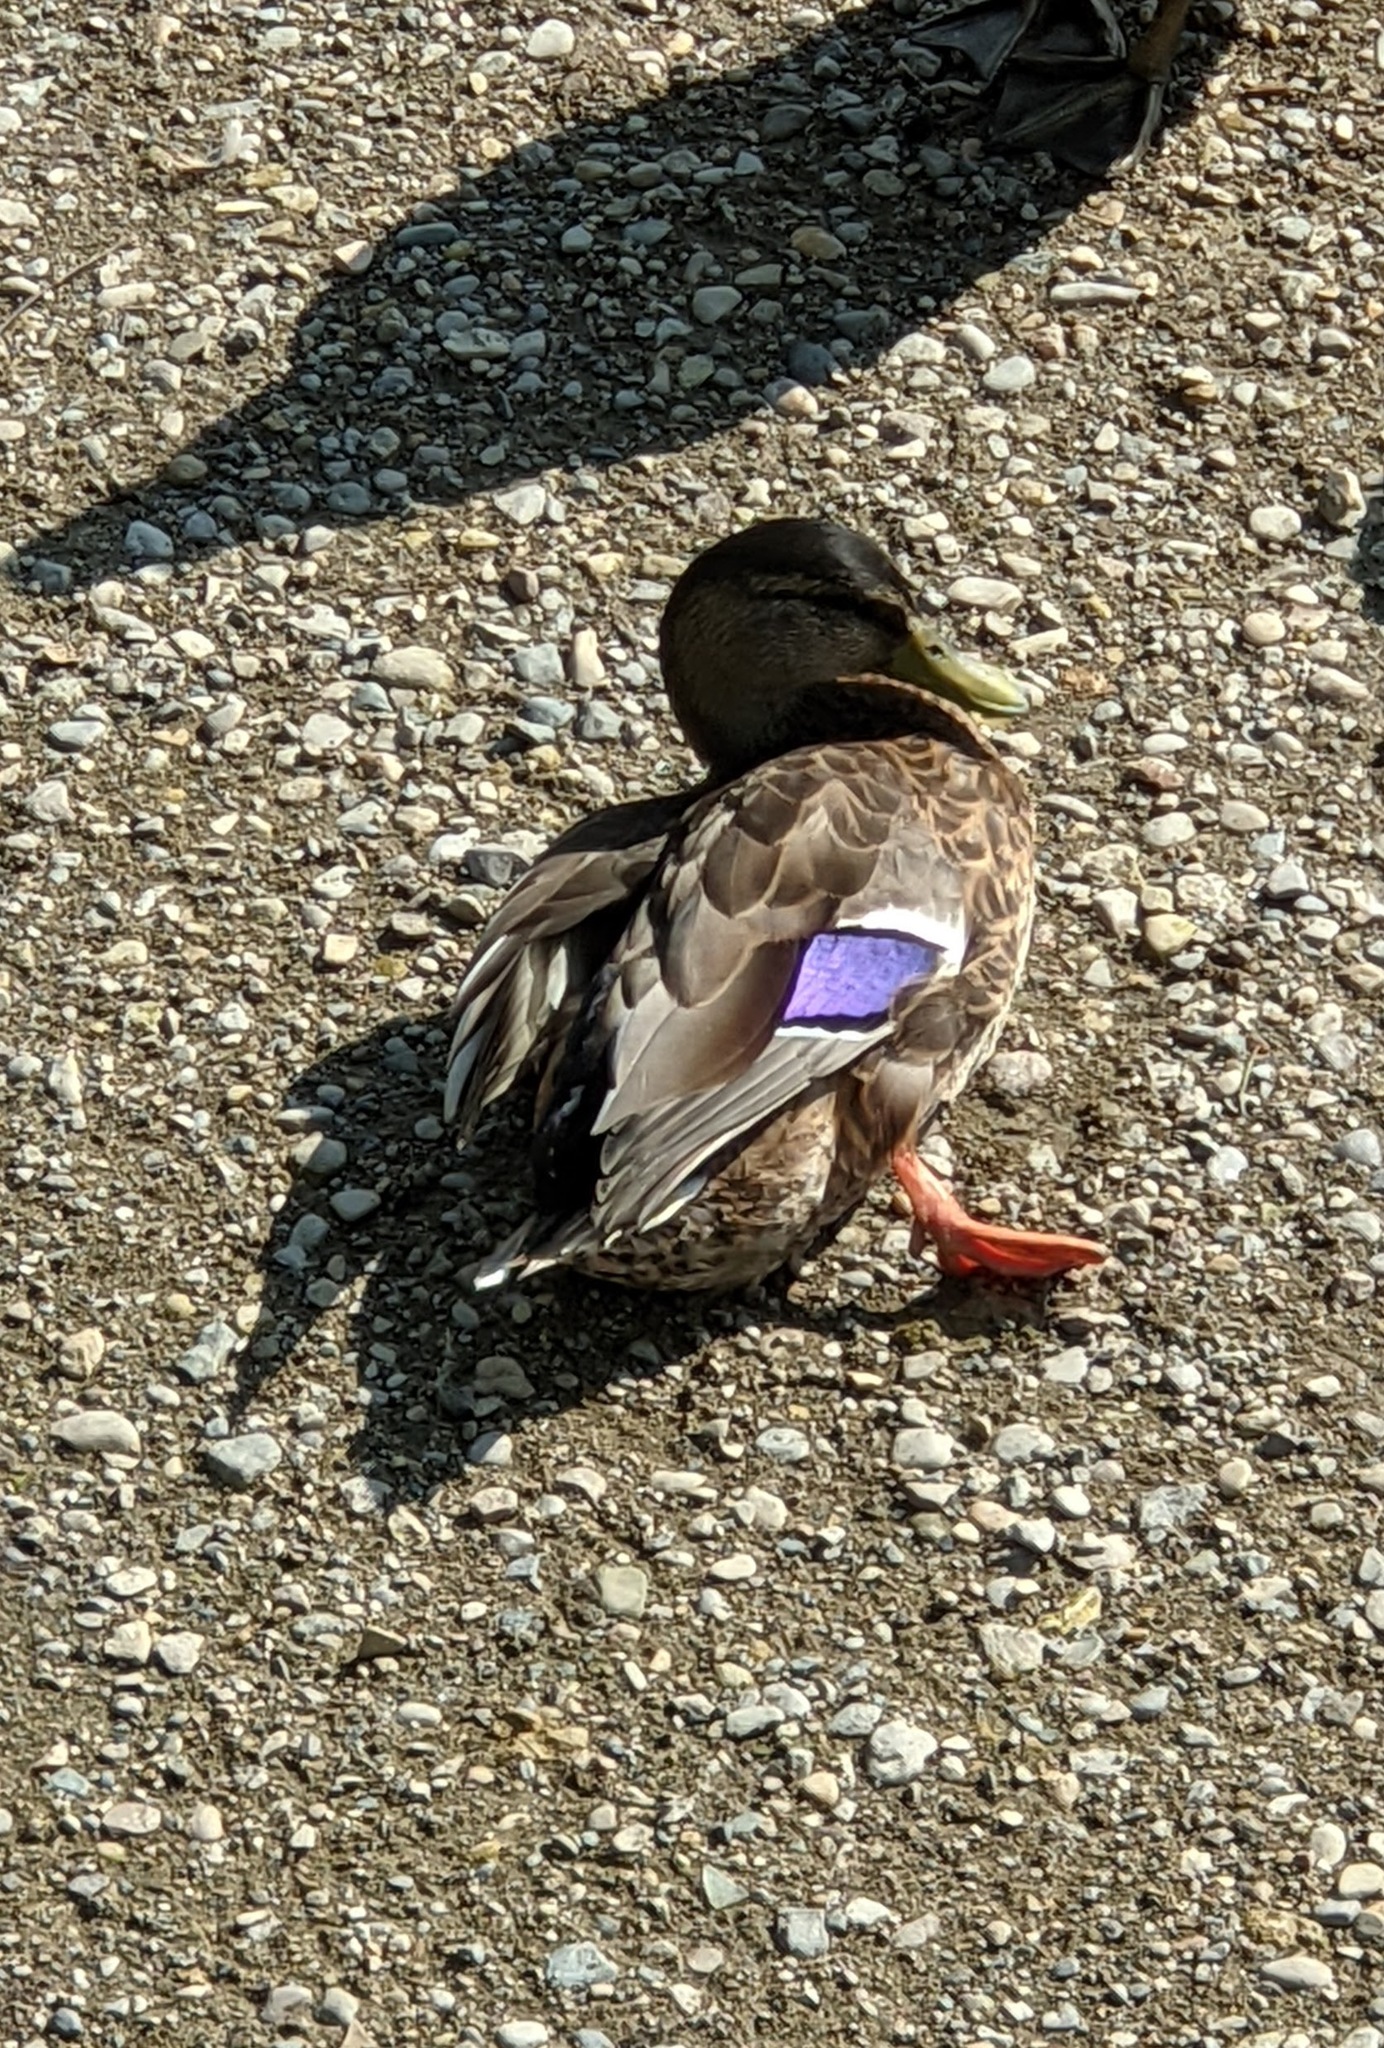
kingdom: Animalia
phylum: Chordata
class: Aves
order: Anseriformes
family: Anatidae
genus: Anas
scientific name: Anas platyrhynchos
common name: Mallard
